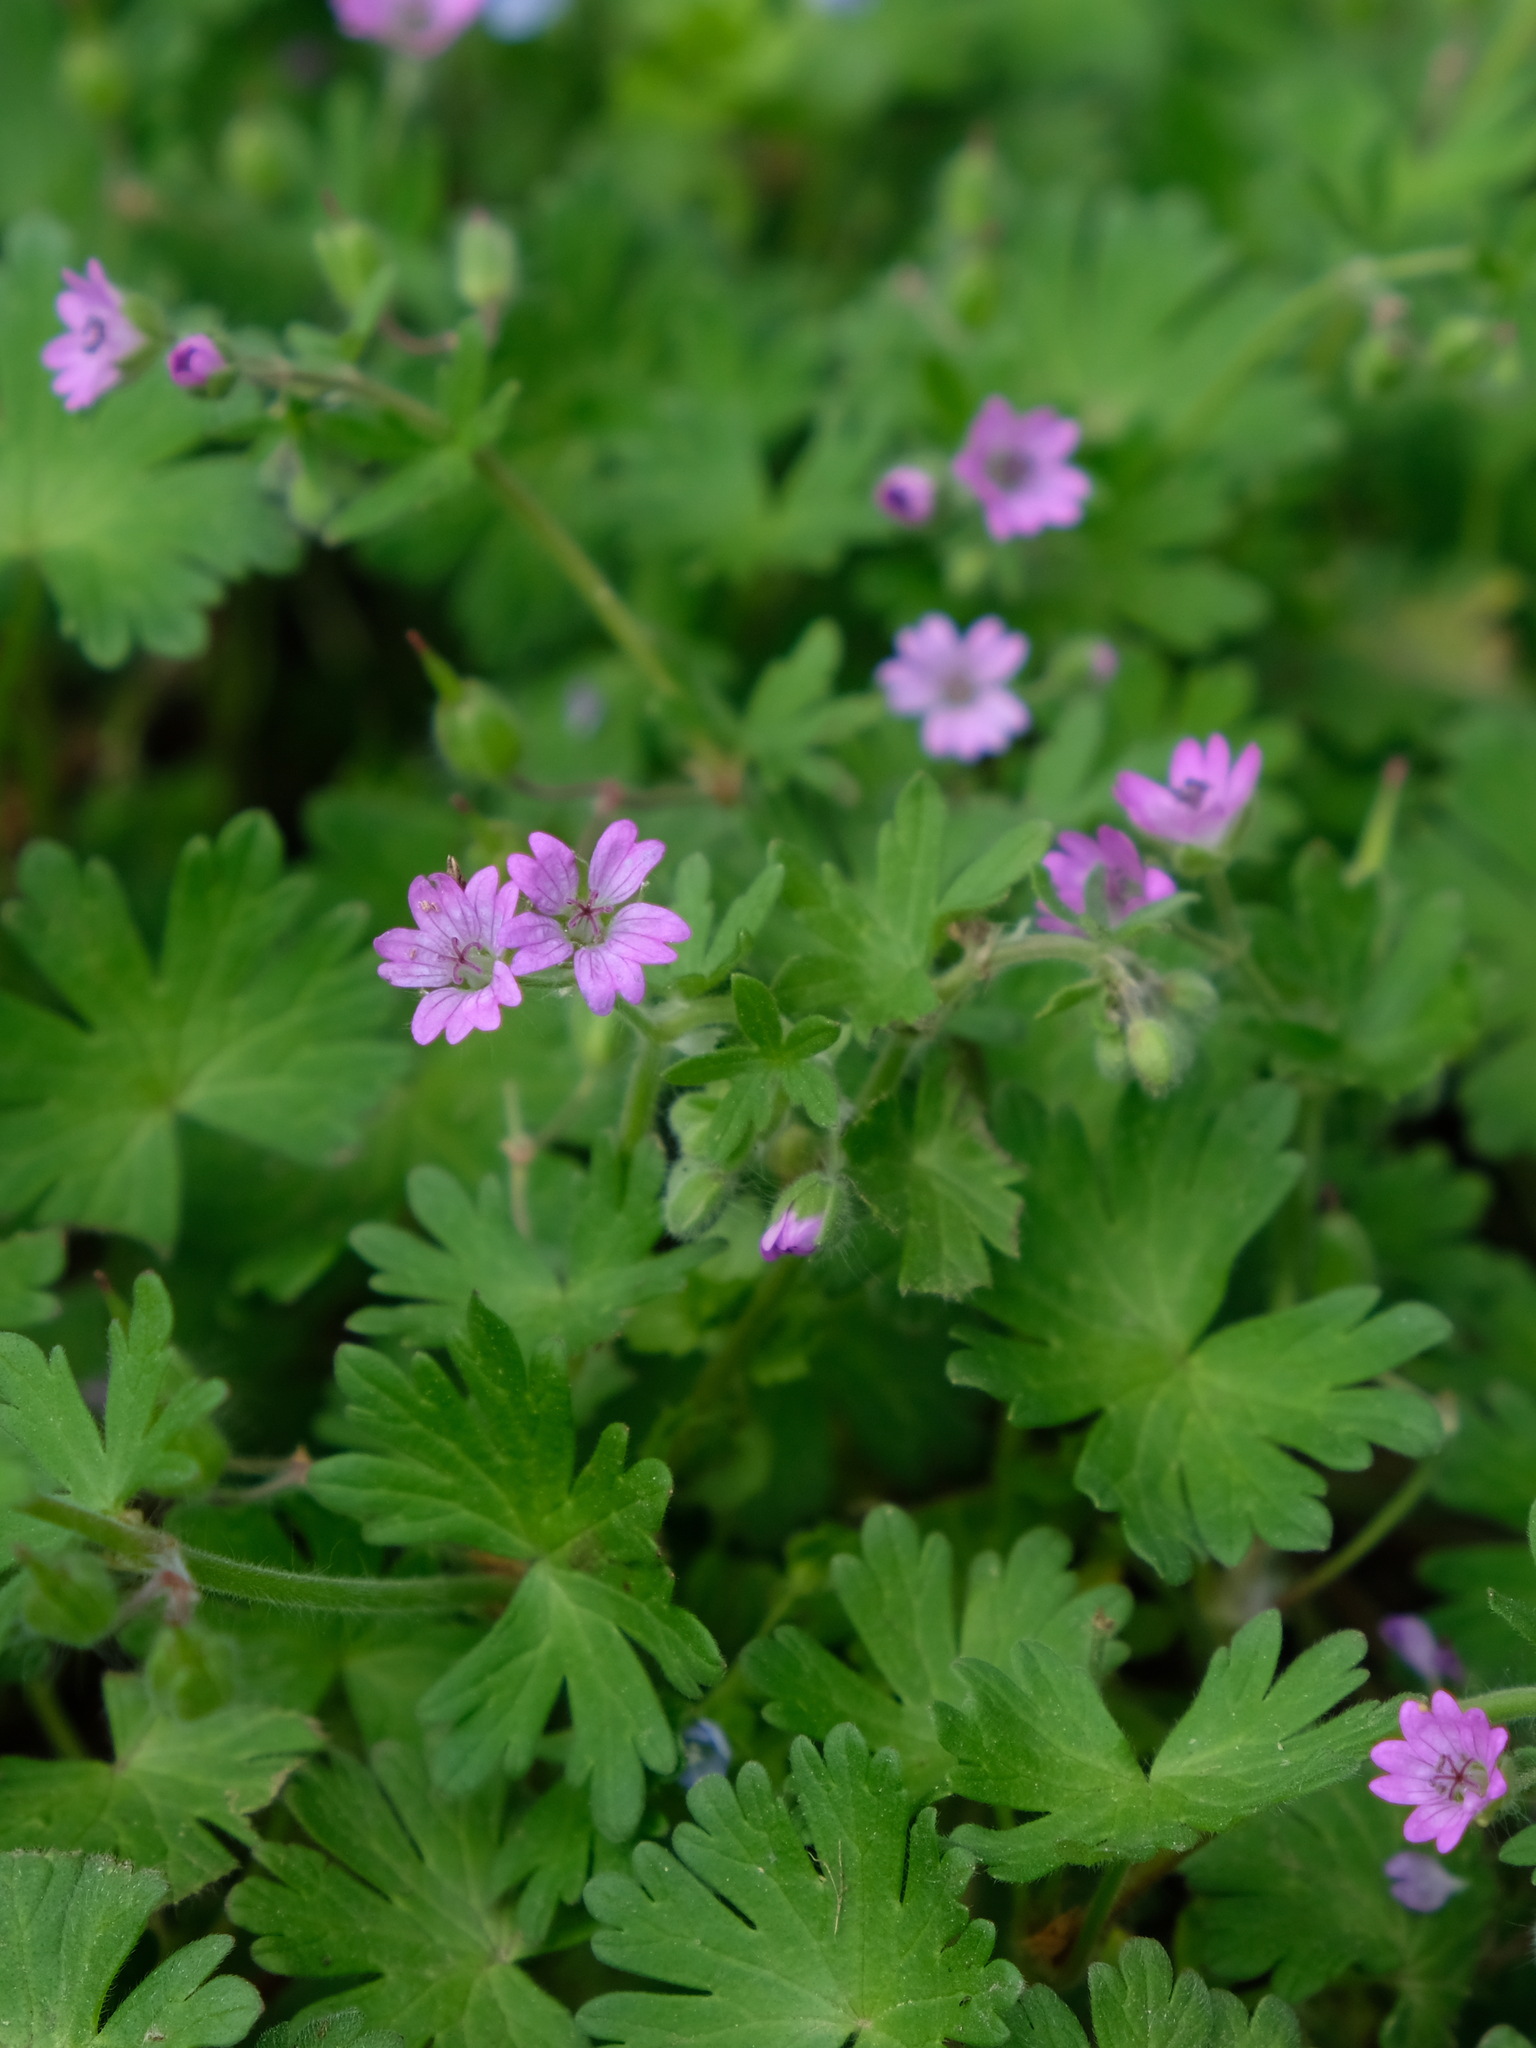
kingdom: Plantae
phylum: Tracheophyta
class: Magnoliopsida
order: Geraniales
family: Geraniaceae
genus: Geranium
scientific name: Geranium molle
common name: Dove's-foot crane's-bill
